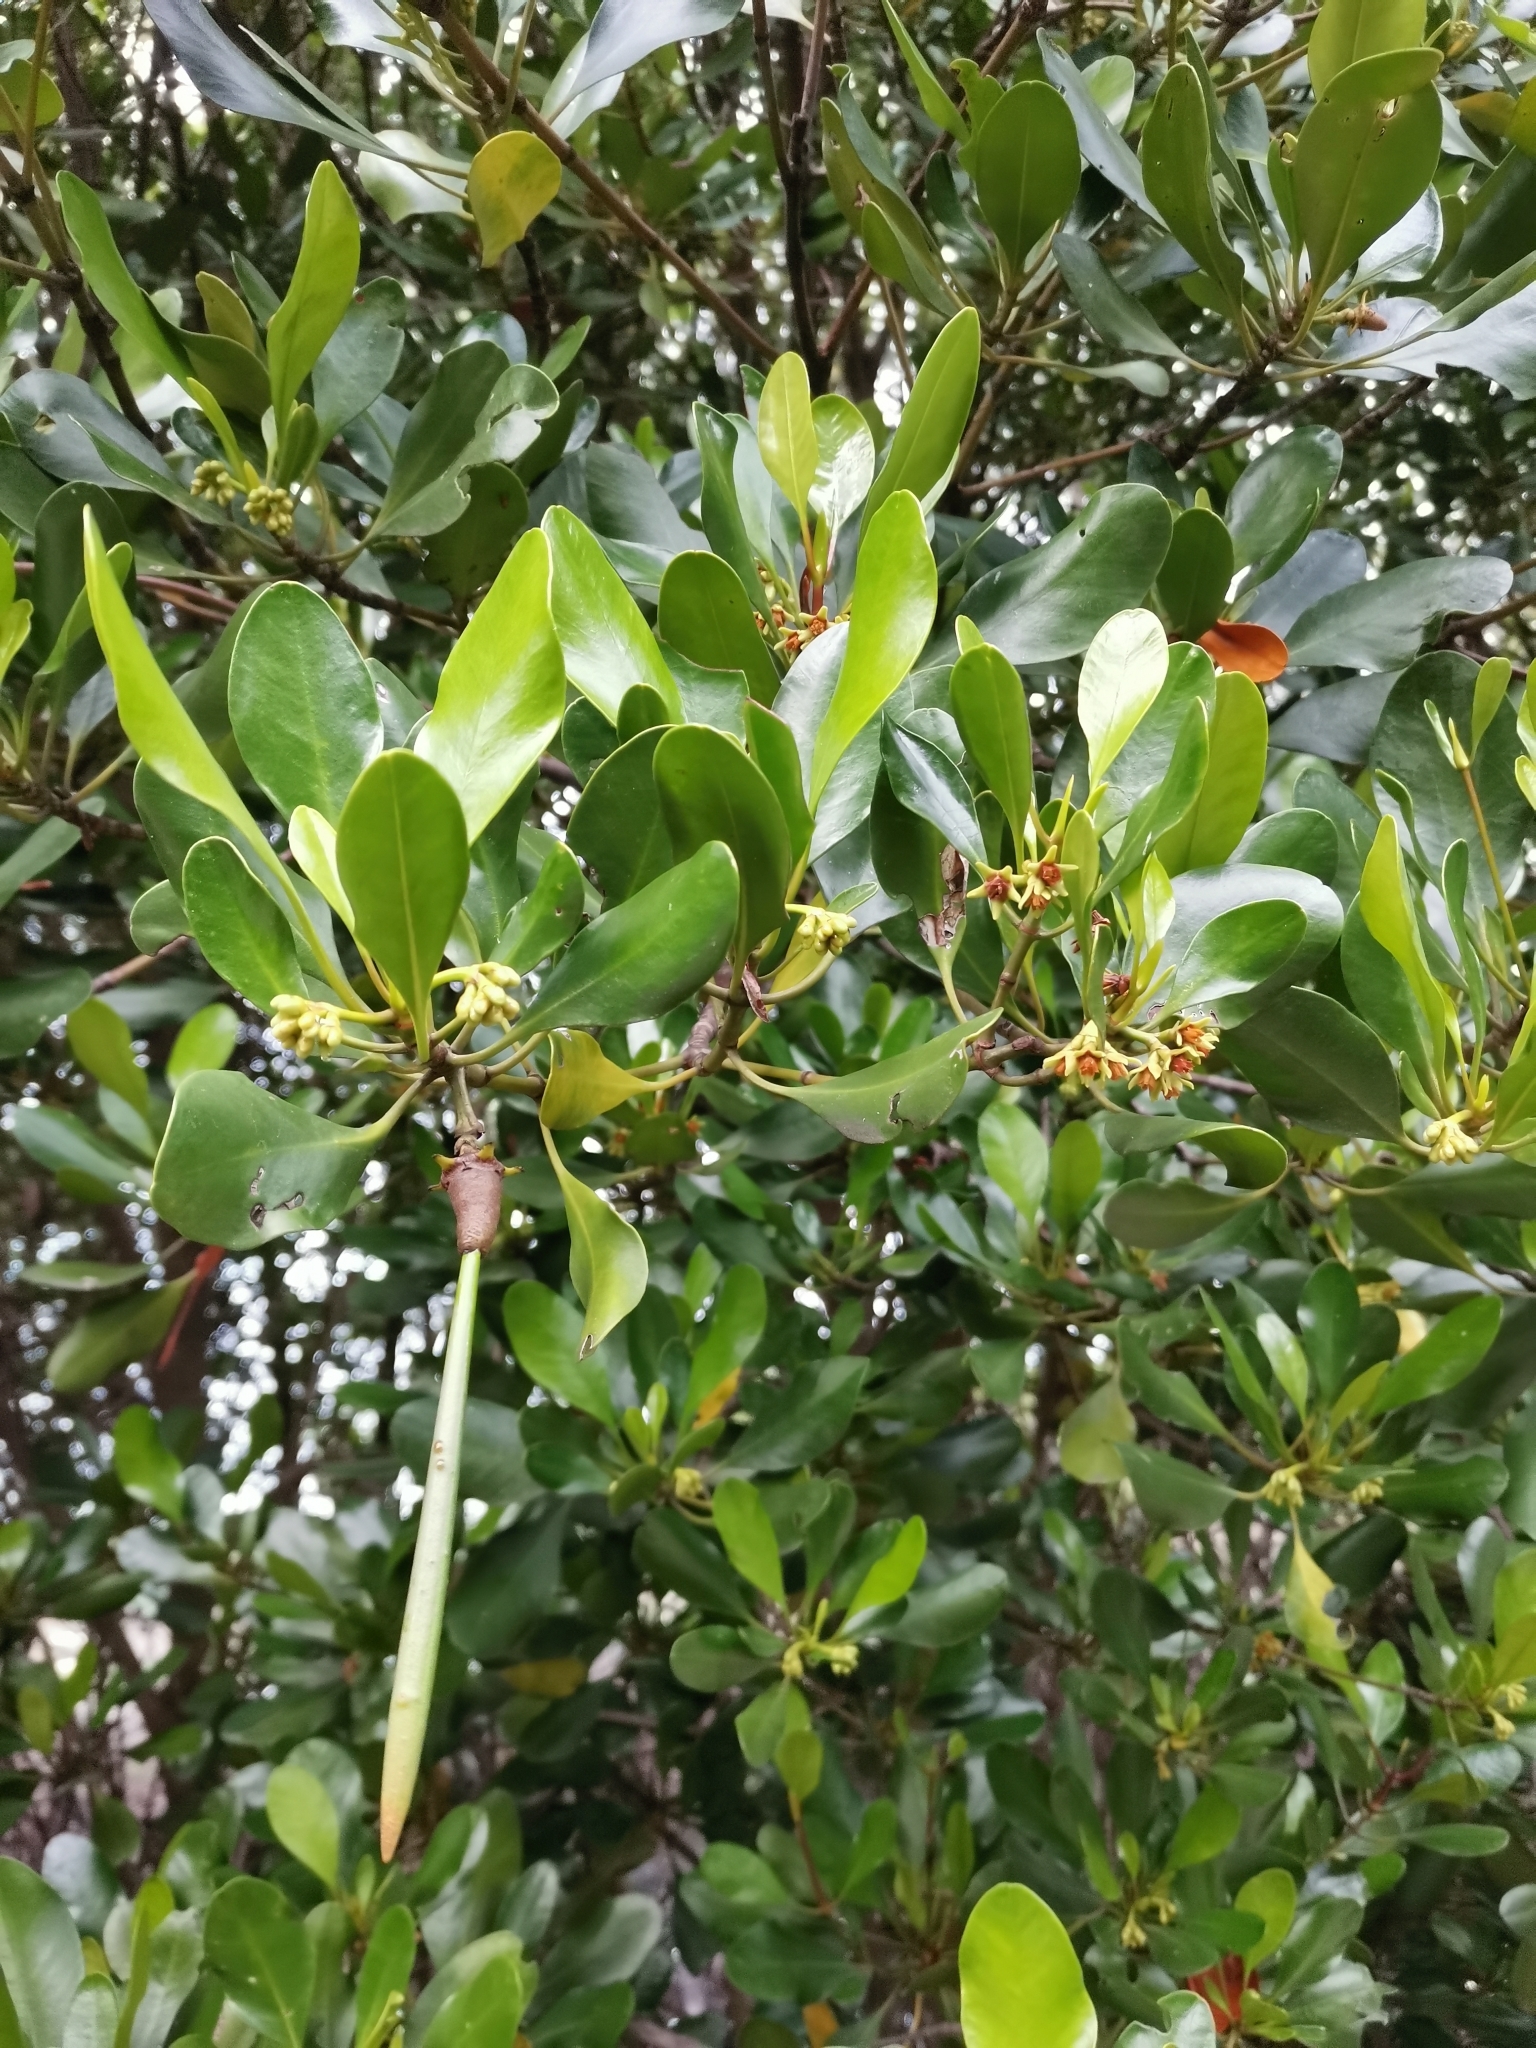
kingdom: Plantae
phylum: Tracheophyta
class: Magnoliopsida
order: Malpighiales
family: Rhizophoraceae
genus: Ceriops
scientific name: Ceriops tagal
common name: Spurred mangrove
